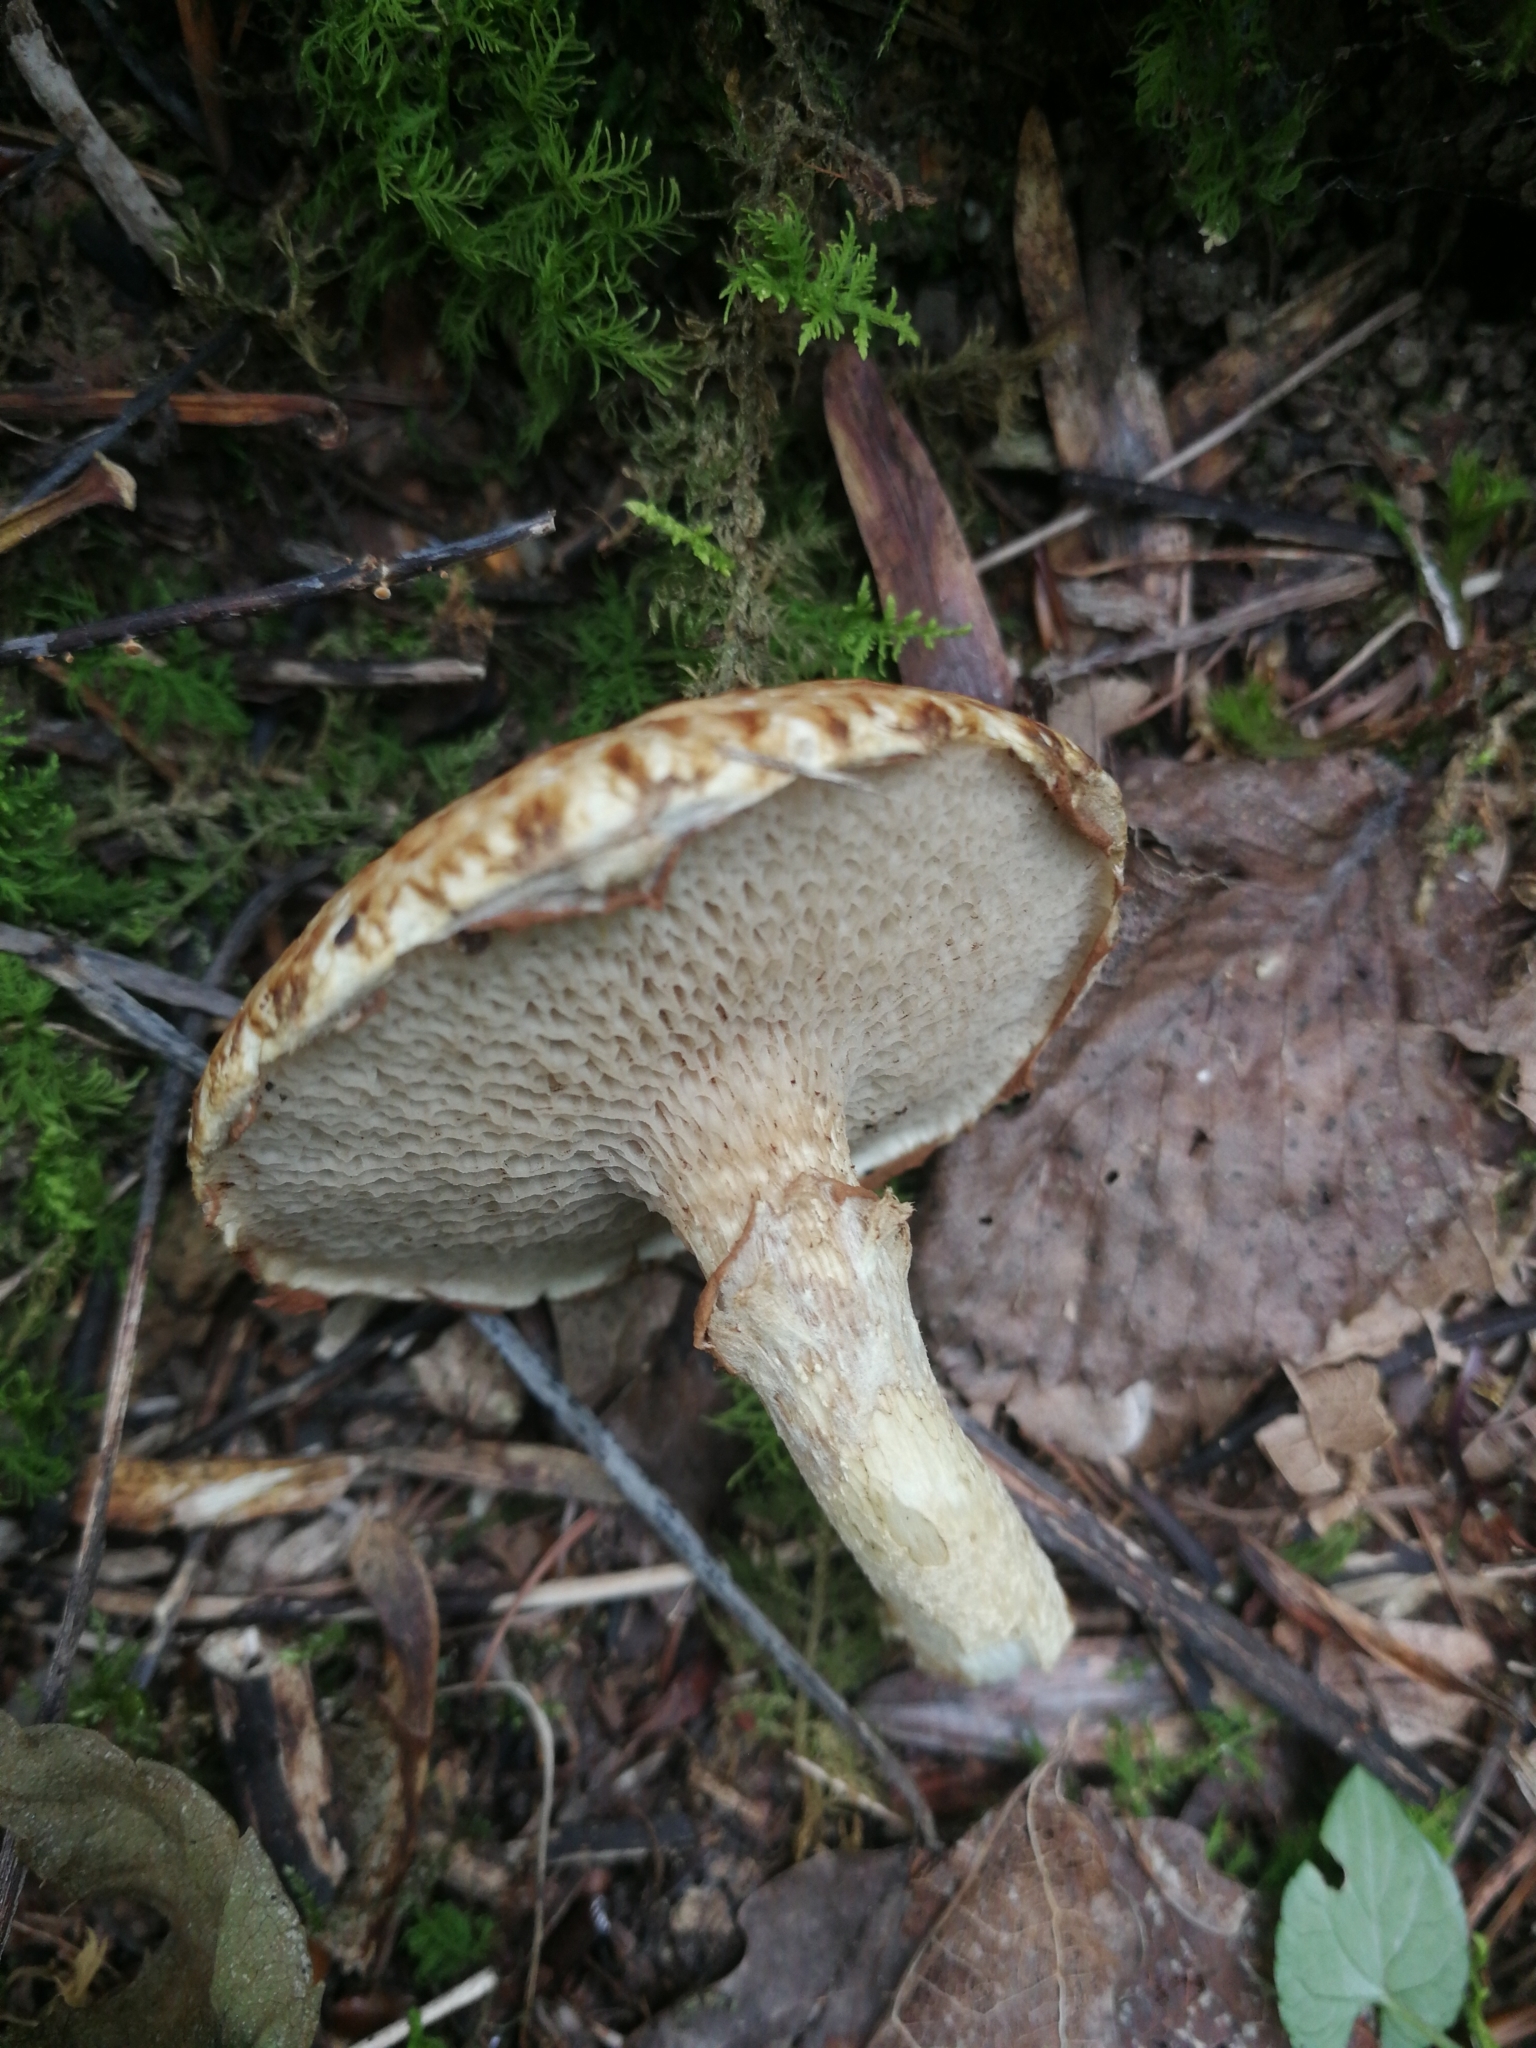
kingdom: Fungi
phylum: Basidiomycota
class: Agaricomycetes
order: Boletales
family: Suillaceae
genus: Suillus
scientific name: Suillus viscidus
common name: Sticky bolete
